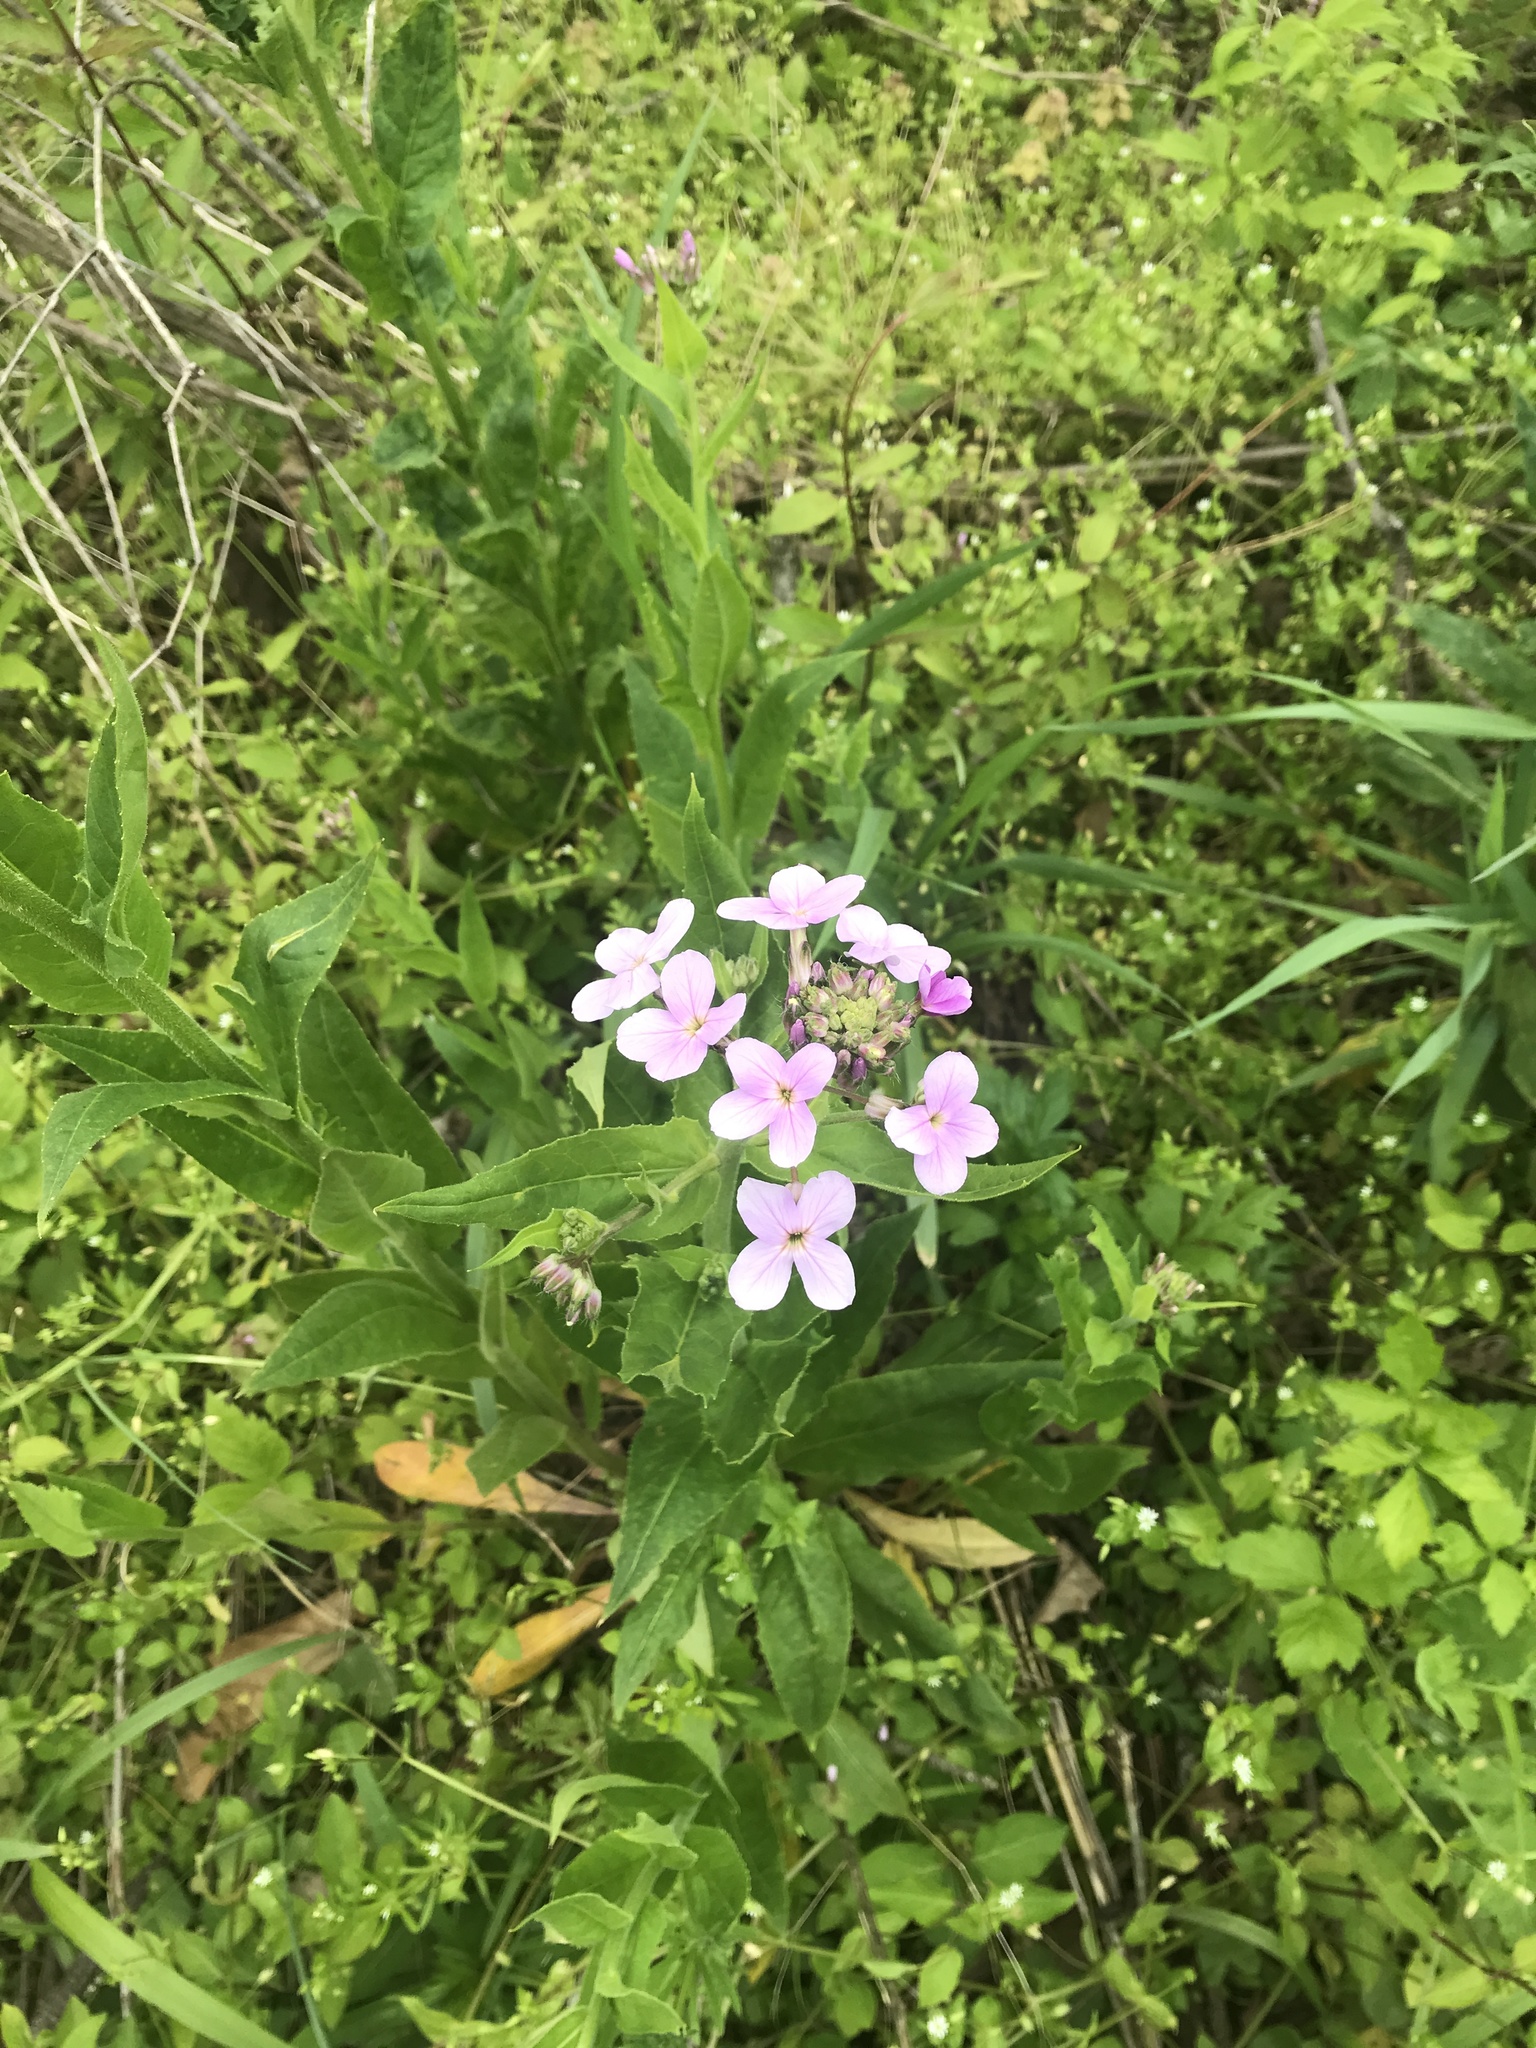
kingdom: Plantae
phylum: Tracheophyta
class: Magnoliopsida
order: Brassicales
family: Brassicaceae
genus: Hesperis
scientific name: Hesperis matronalis
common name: Dame's-violet
